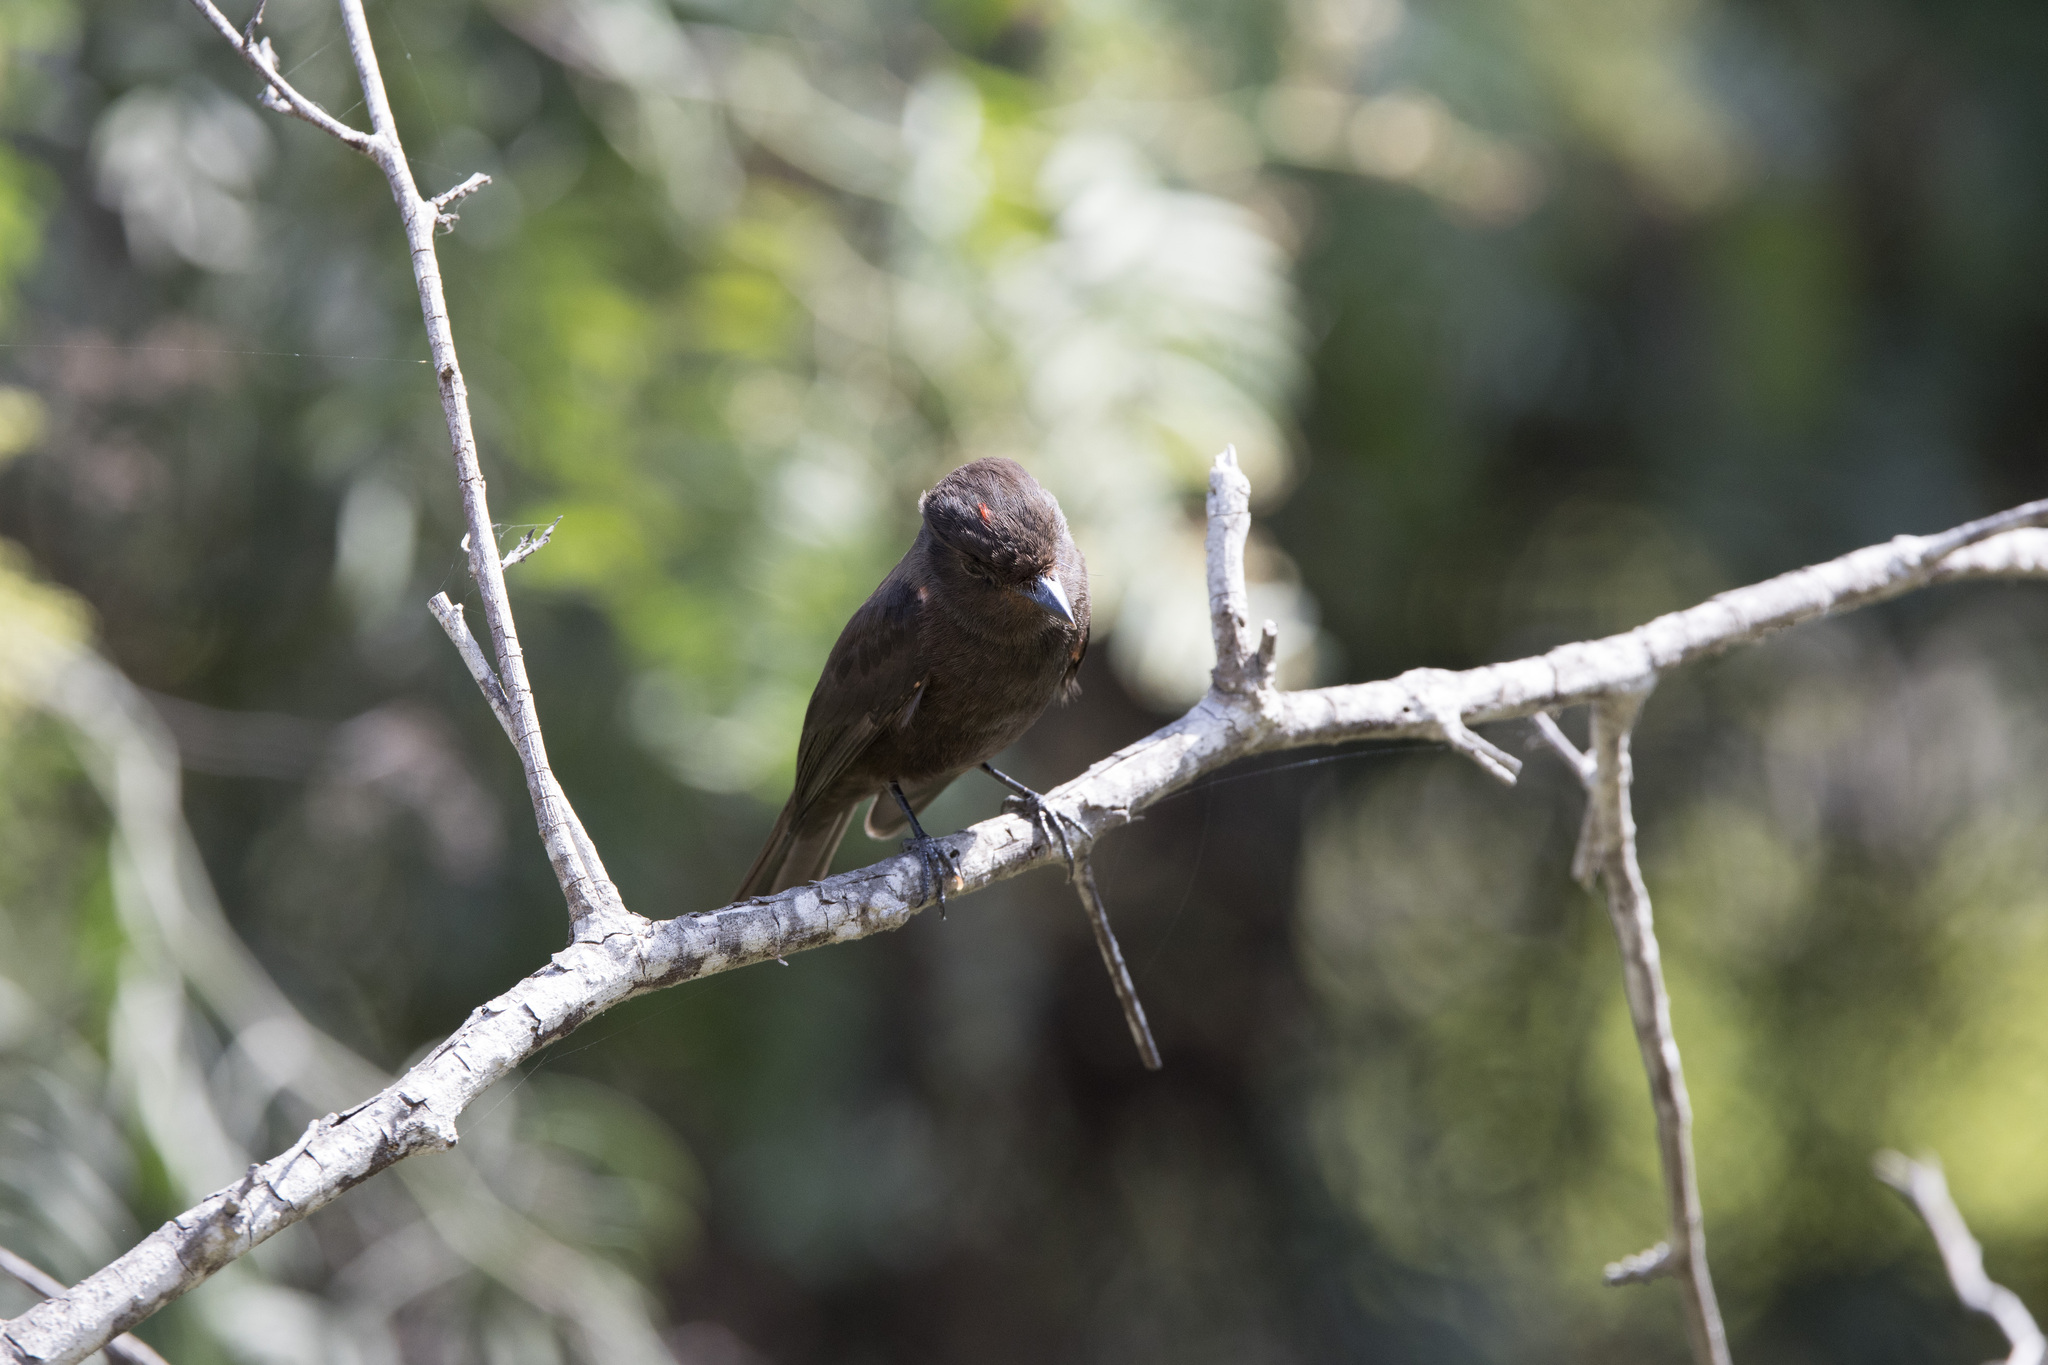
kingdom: Animalia
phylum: Chordata
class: Aves
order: Passeriformes
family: Tyrannidae
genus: Pyrocephalus
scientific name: Pyrocephalus rubinus
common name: Vermilion flycatcher
